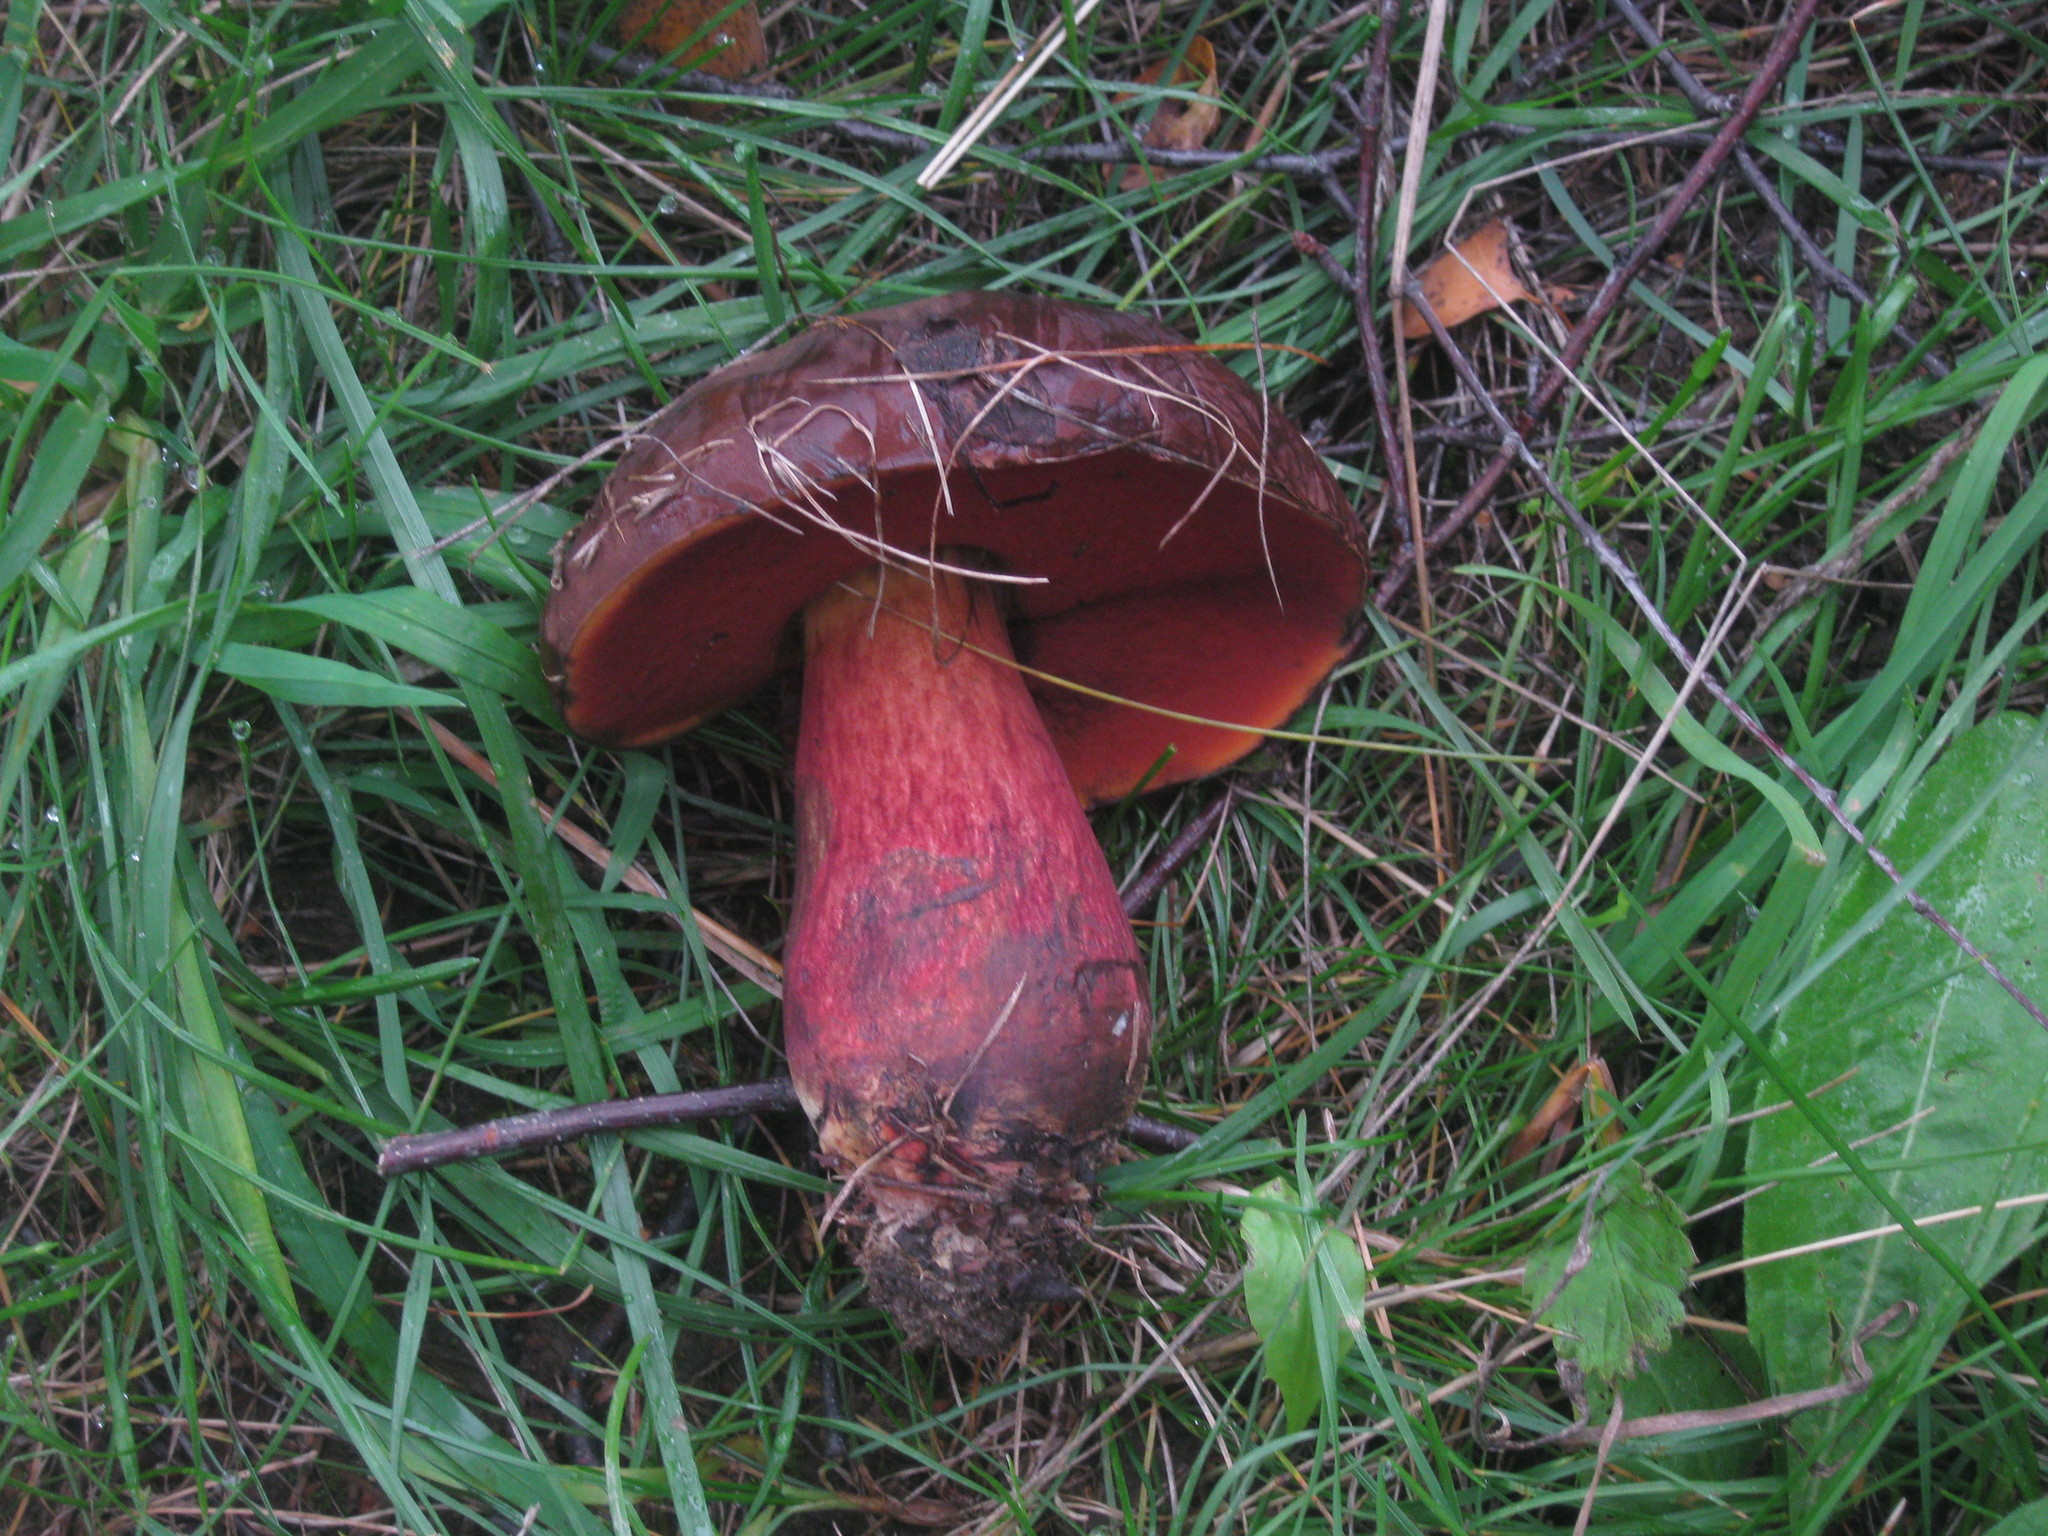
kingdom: Fungi
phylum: Basidiomycota
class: Agaricomycetes
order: Boletales
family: Boletaceae
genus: Neoboletus
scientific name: Neoboletus erythropus
